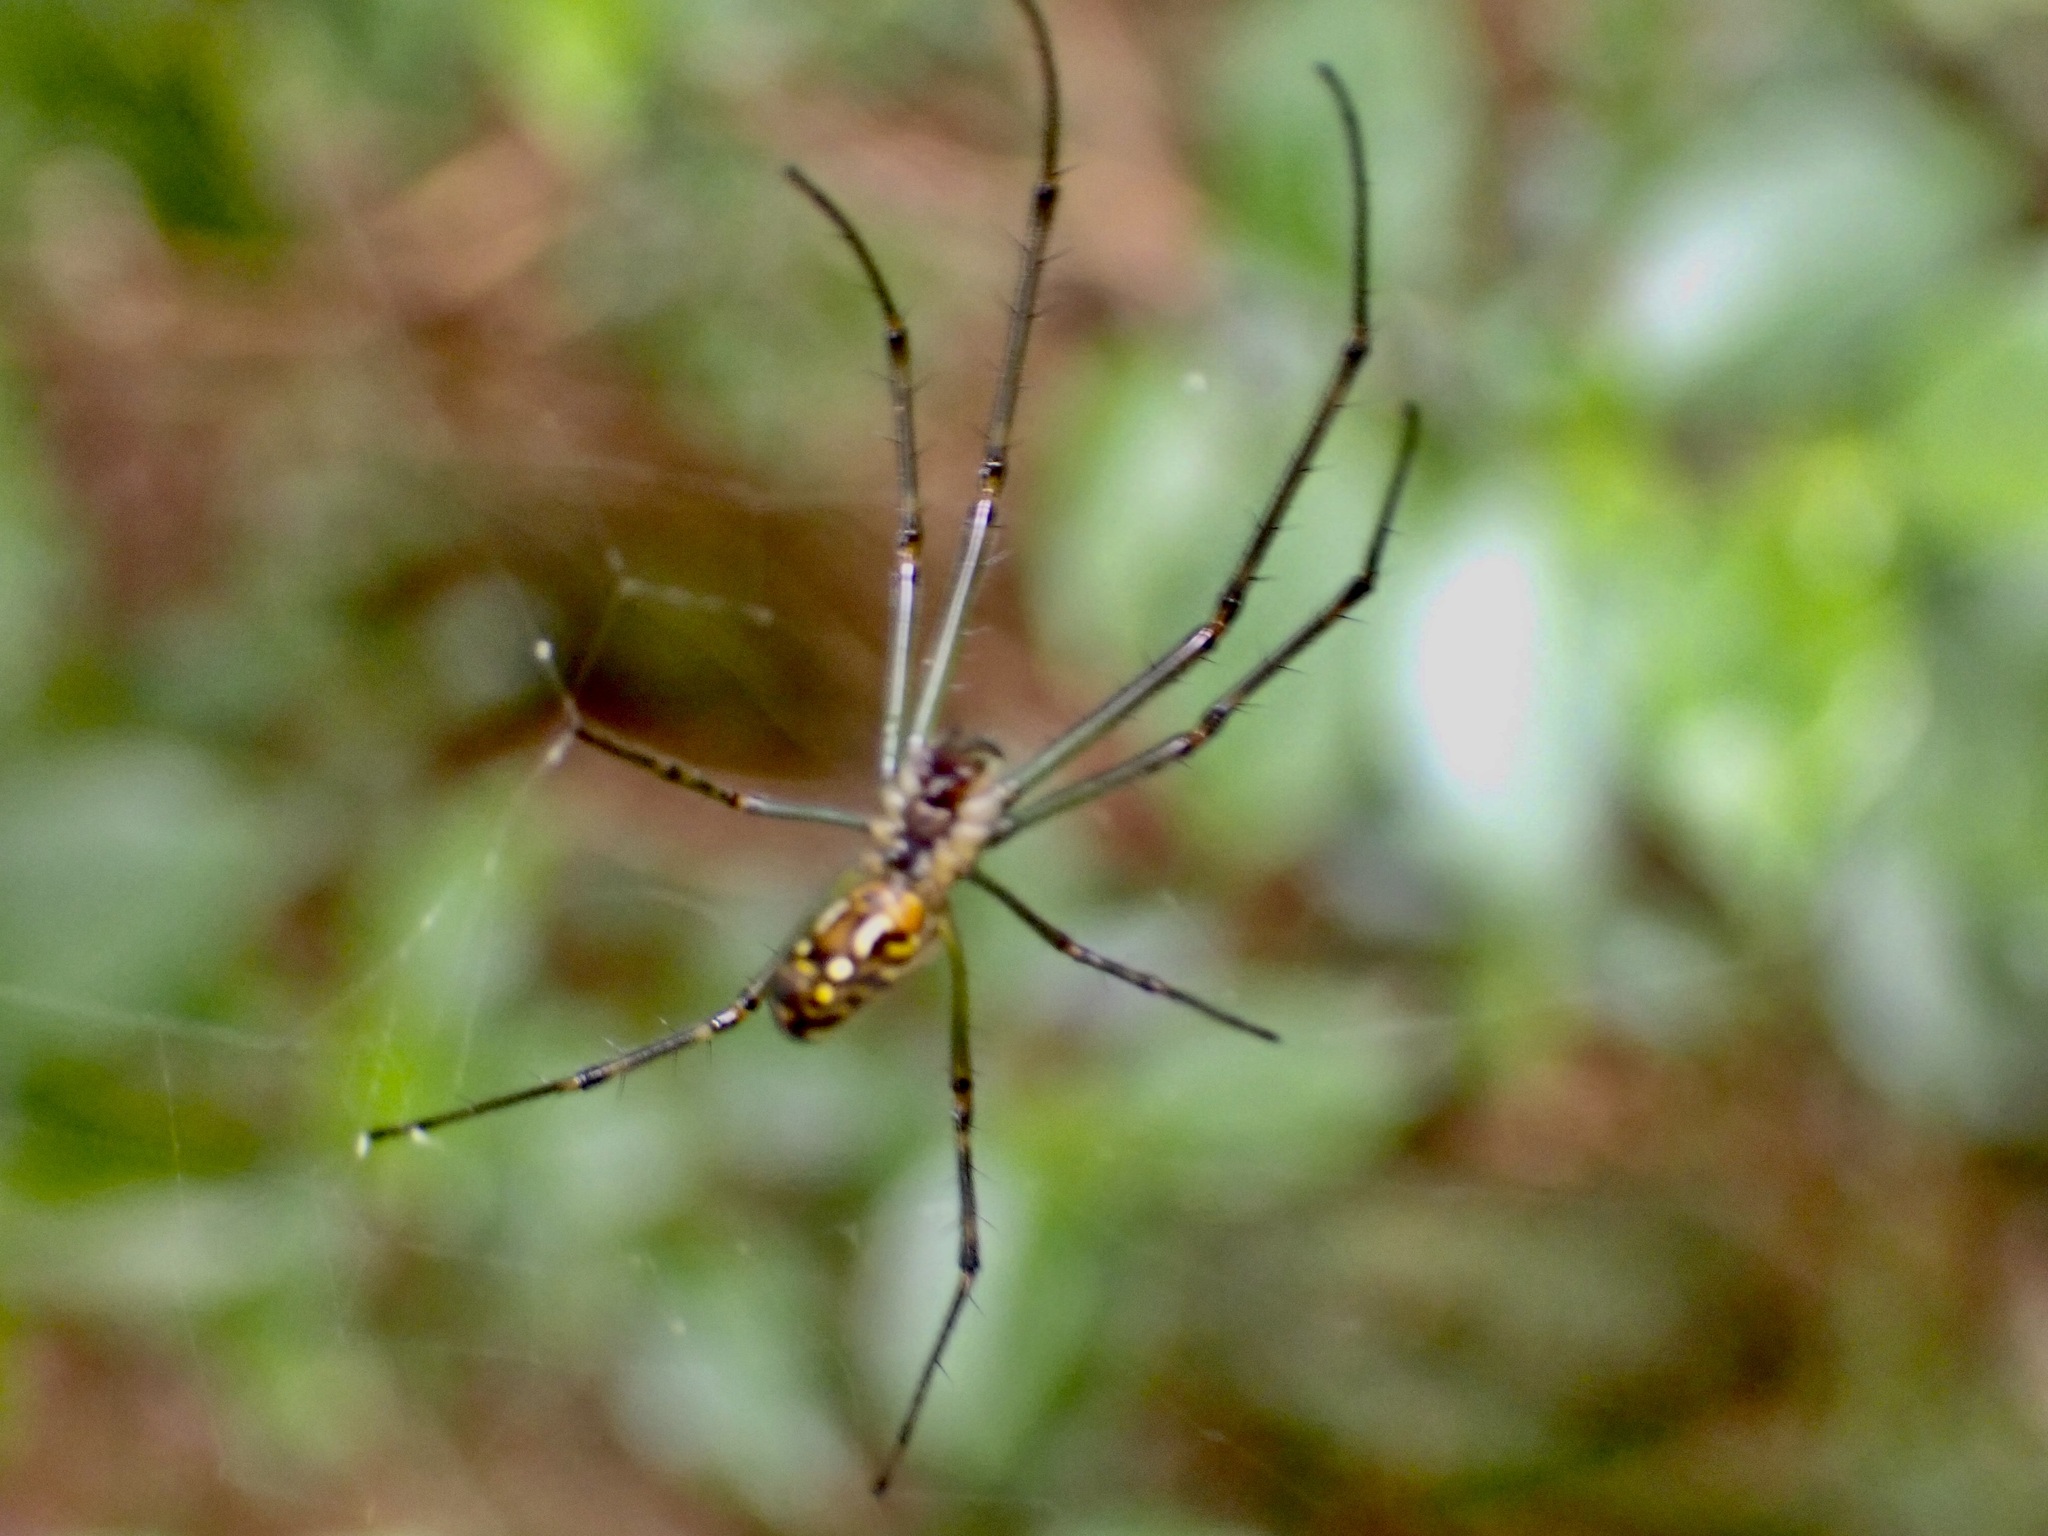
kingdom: Animalia
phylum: Arthropoda
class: Arachnida
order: Araneae
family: Tetragnathidae
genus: Leucauge
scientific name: Leucauge dromedaria
